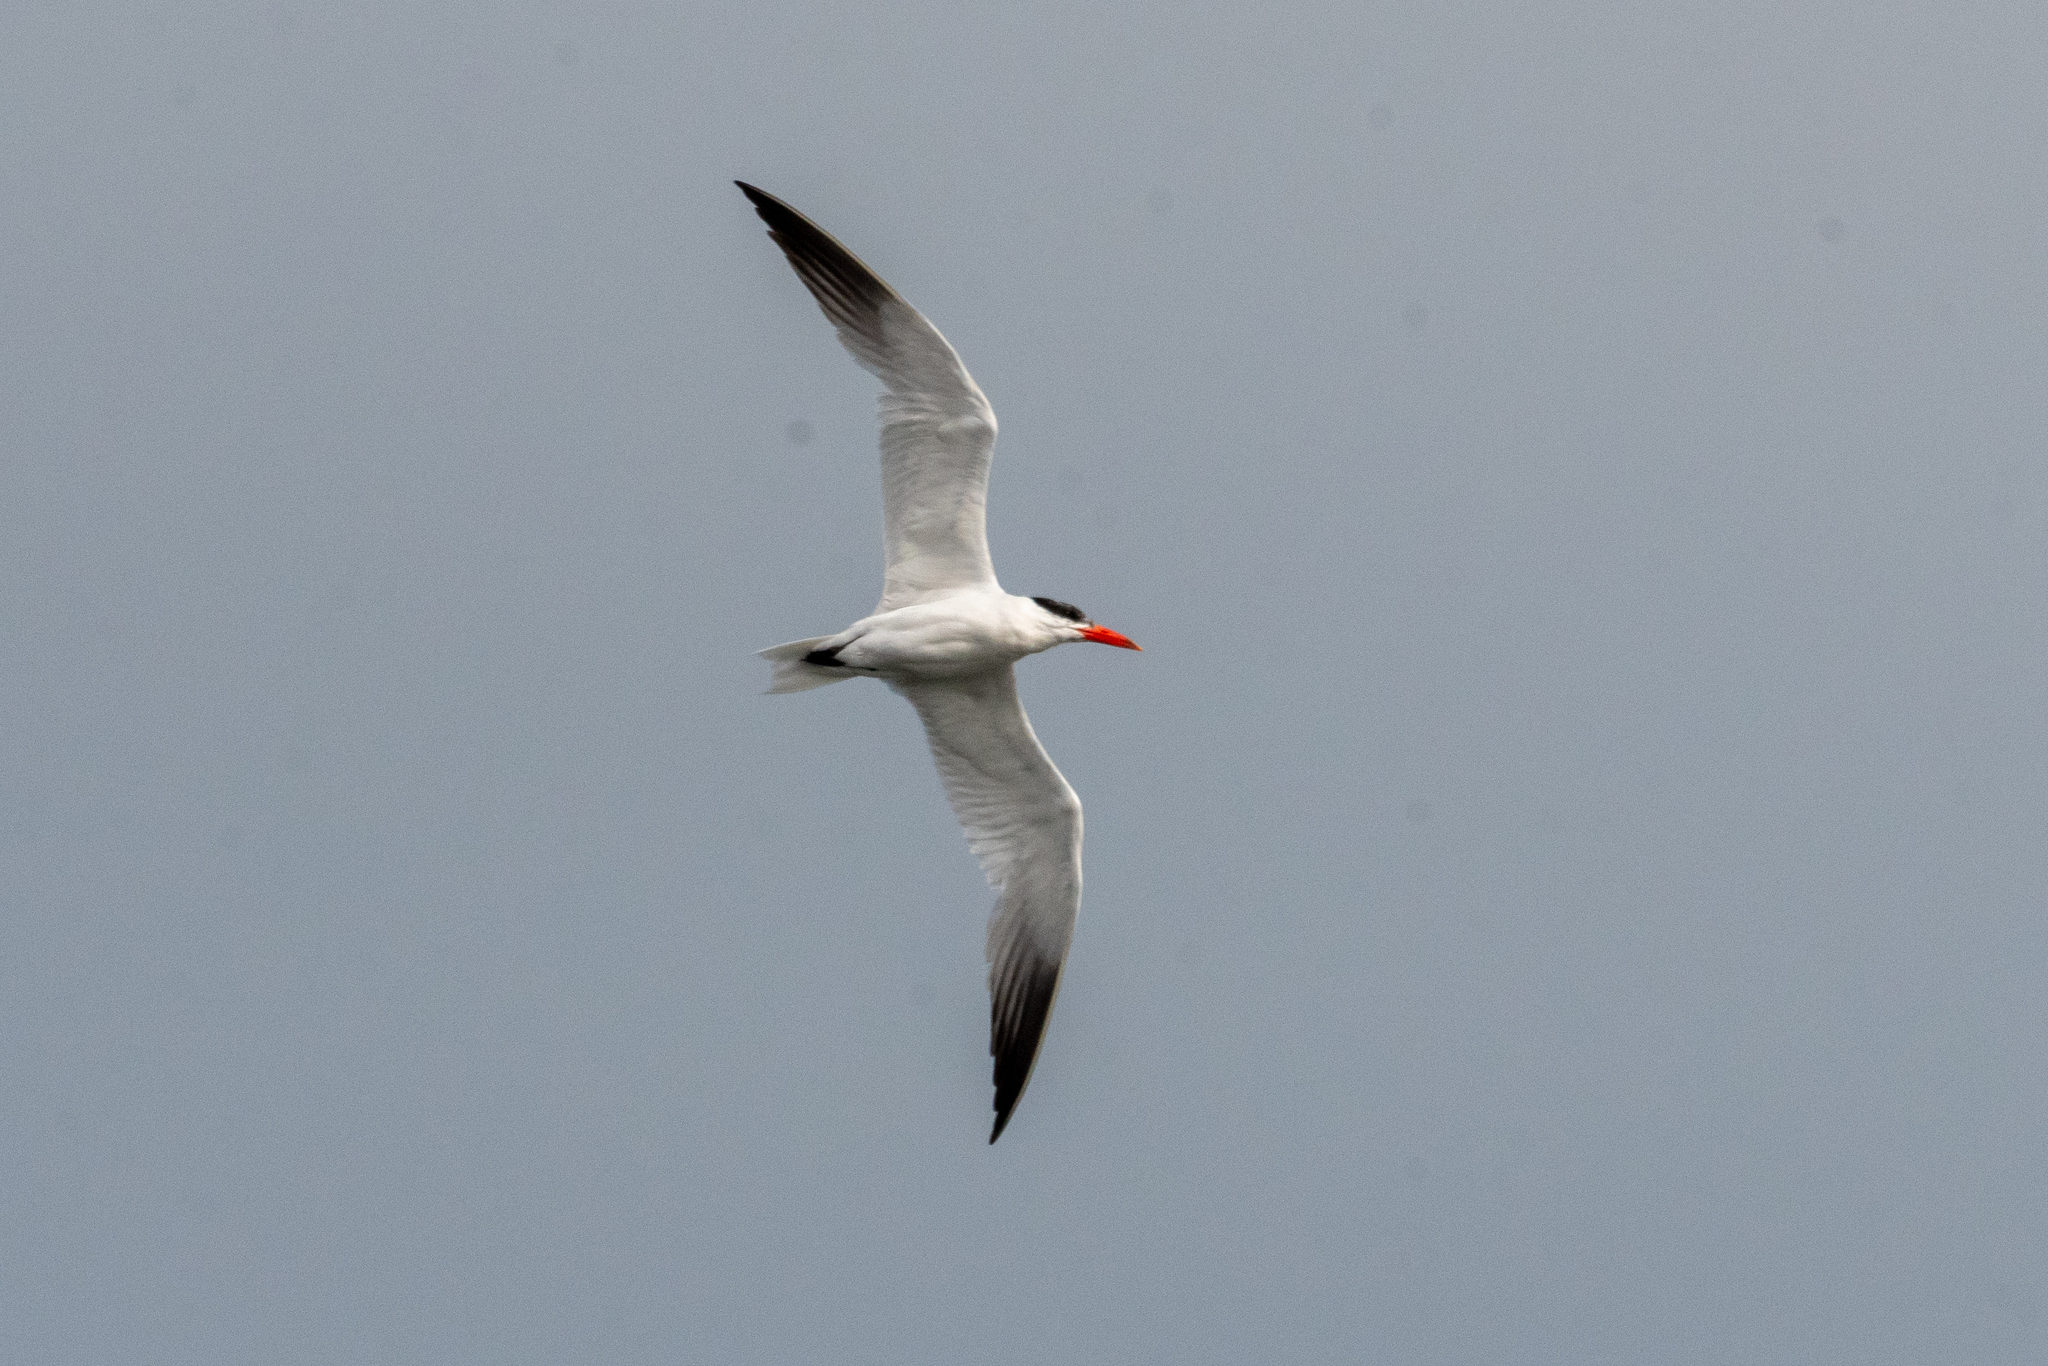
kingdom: Animalia
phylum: Chordata
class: Aves
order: Charadriiformes
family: Laridae
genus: Hydroprogne
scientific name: Hydroprogne caspia
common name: Caspian tern
